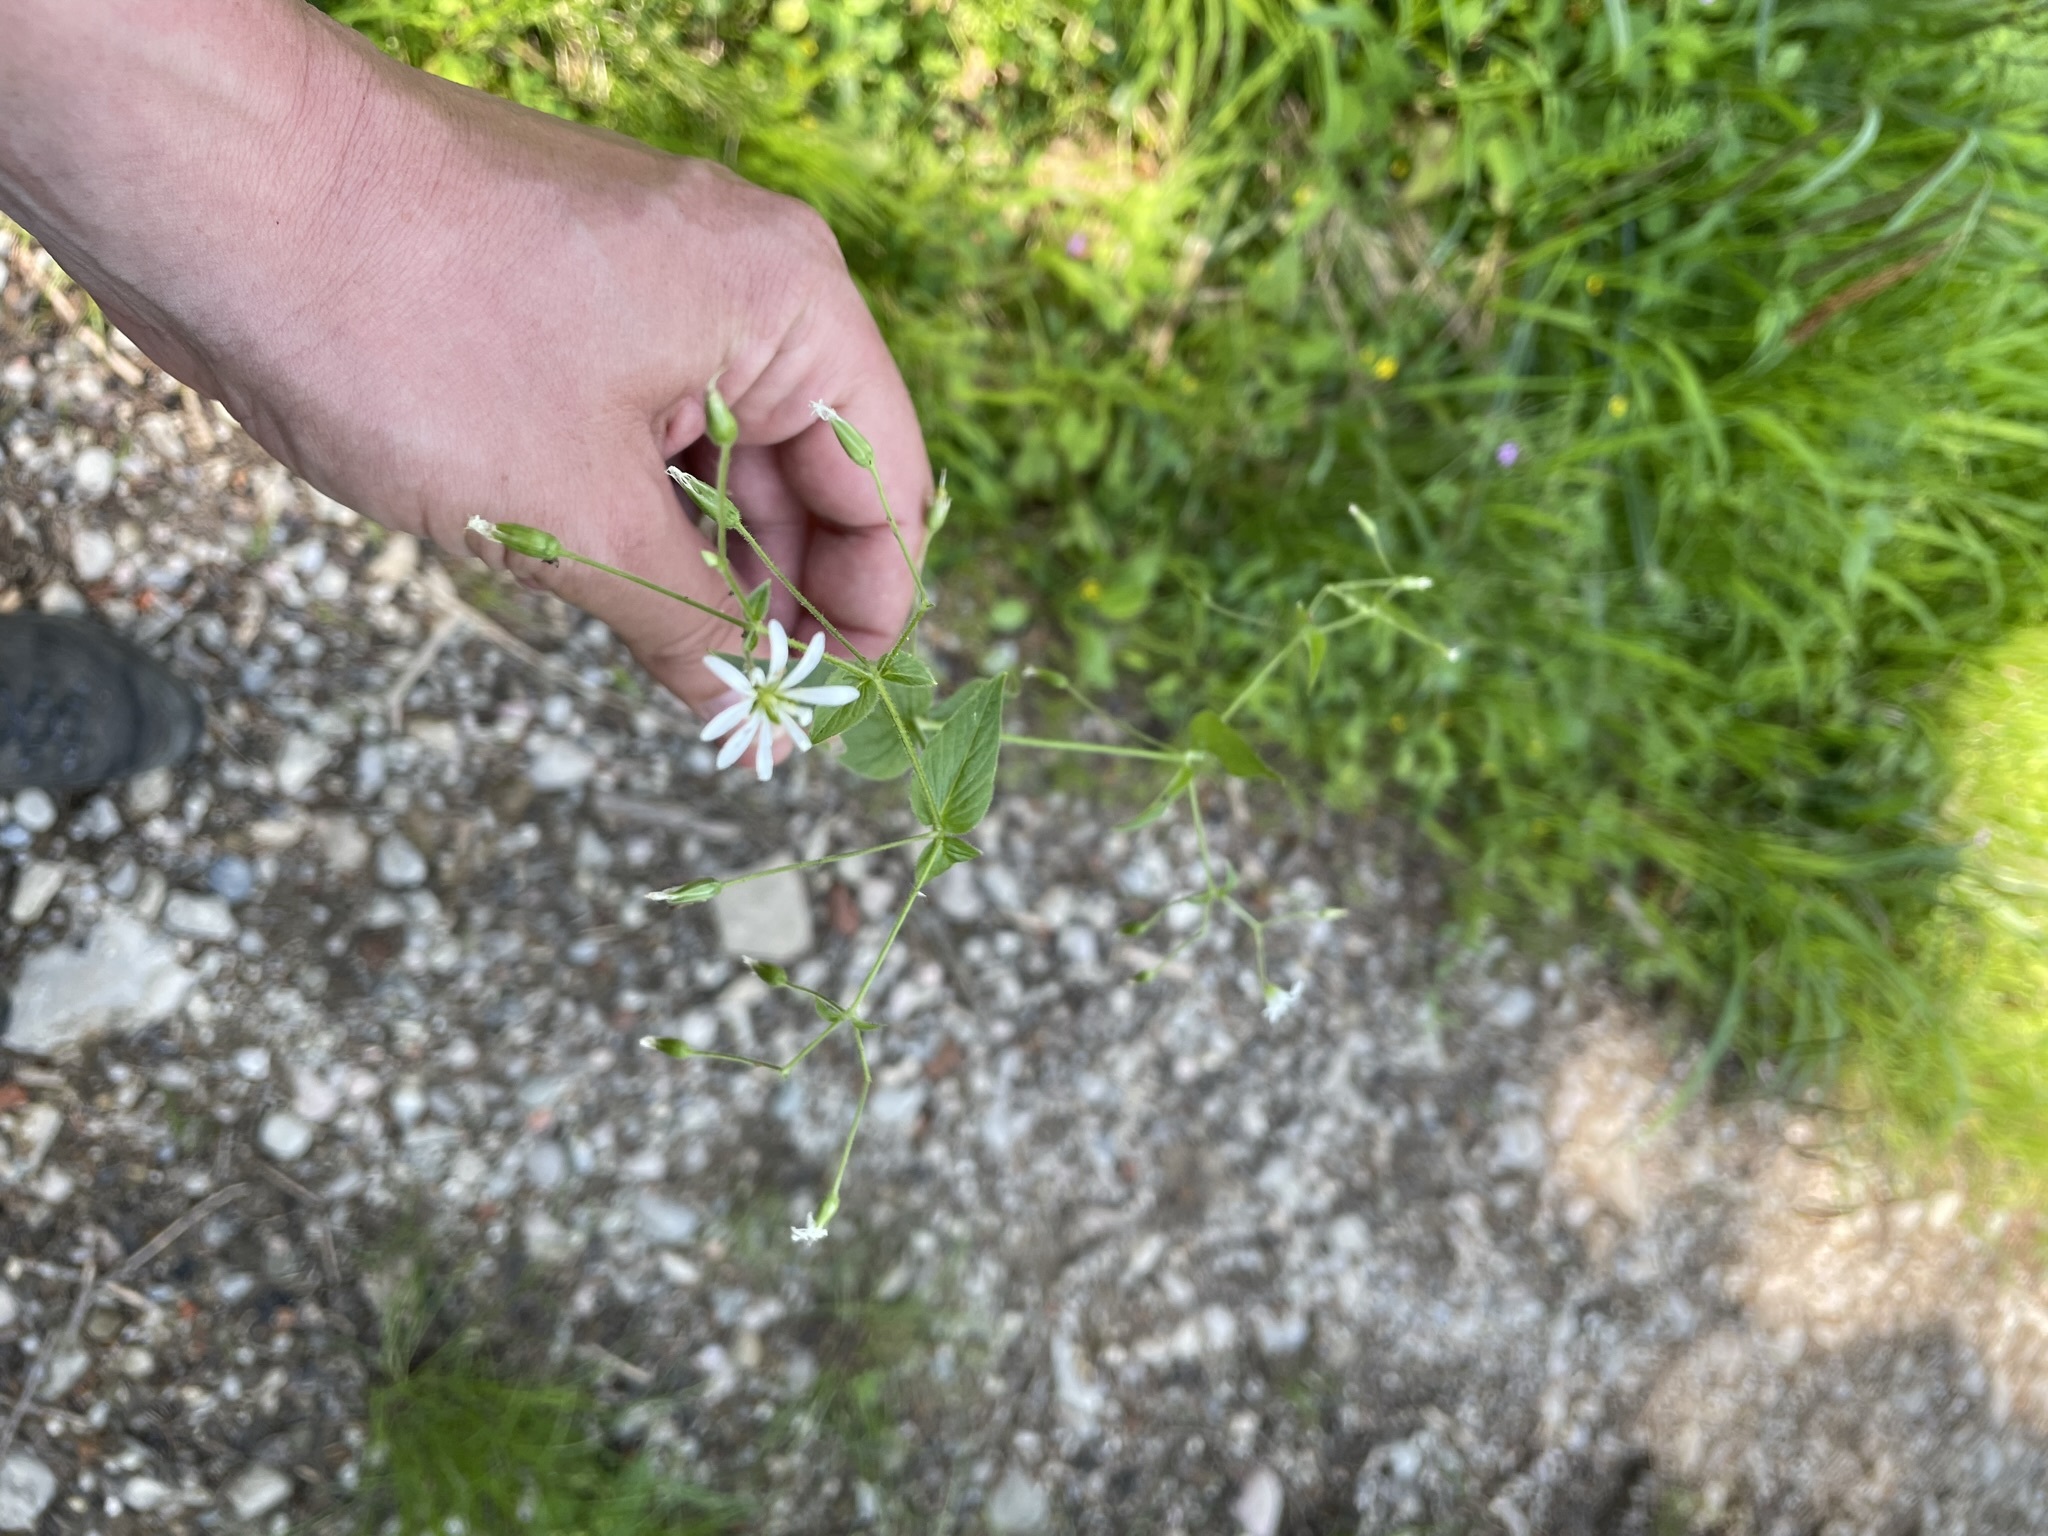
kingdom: Plantae
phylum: Tracheophyta
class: Magnoliopsida
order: Caryophyllales
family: Caryophyllaceae
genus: Stellaria
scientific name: Stellaria nemorum
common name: Wood stitchwort
